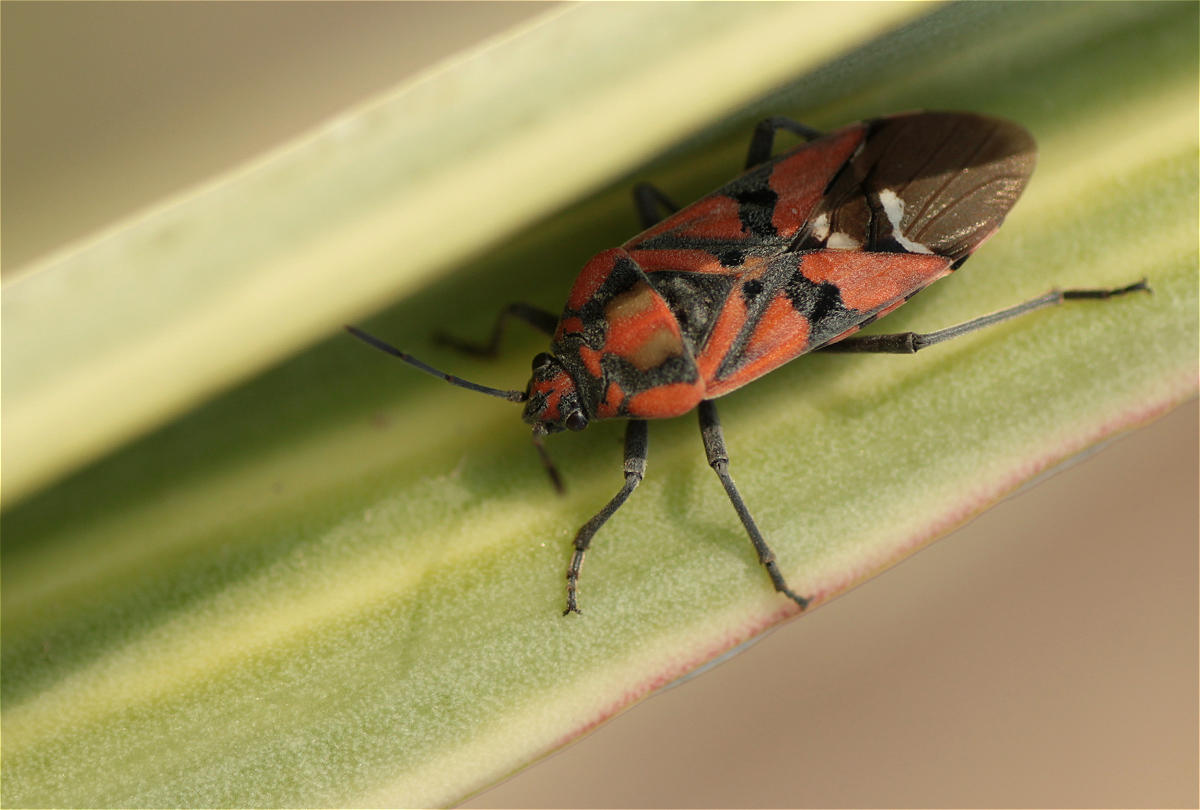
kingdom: Animalia
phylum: Arthropoda
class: Insecta
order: Hemiptera
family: Lygaeidae
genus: Spilostethus
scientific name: Spilostethus pandurus
